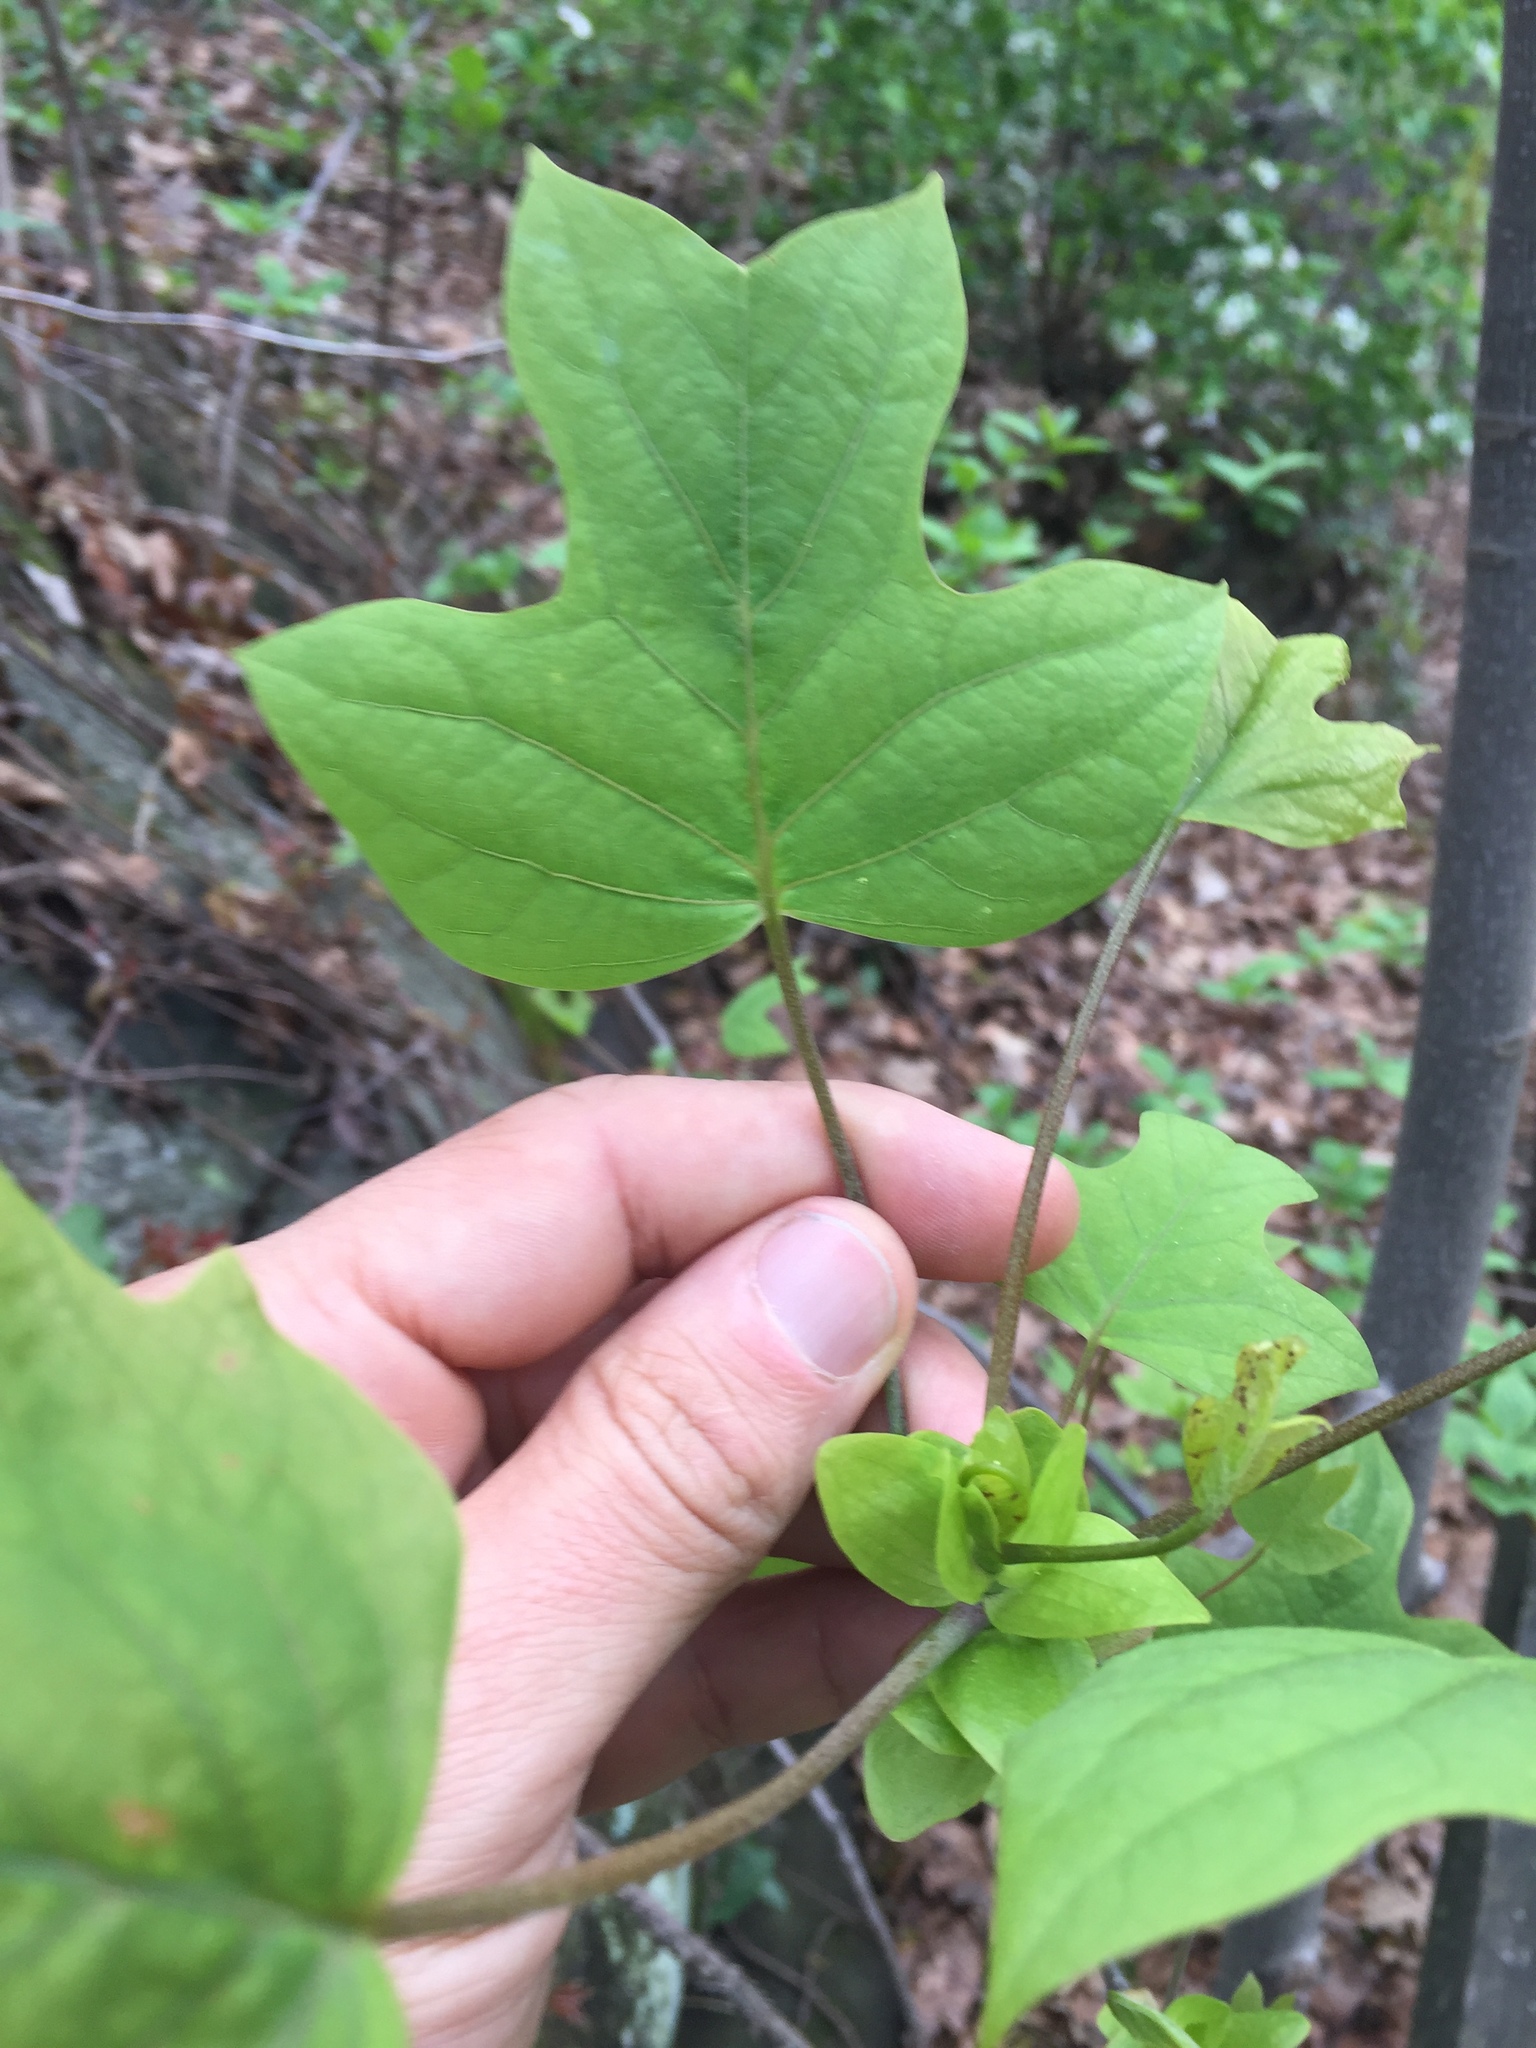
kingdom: Plantae
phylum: Tracheophyta
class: Magnoliopsida
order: Magnoliales
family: Magnoliaceae
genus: Liriodendron
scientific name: Liriodendron tulipifera
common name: Tulip tree
